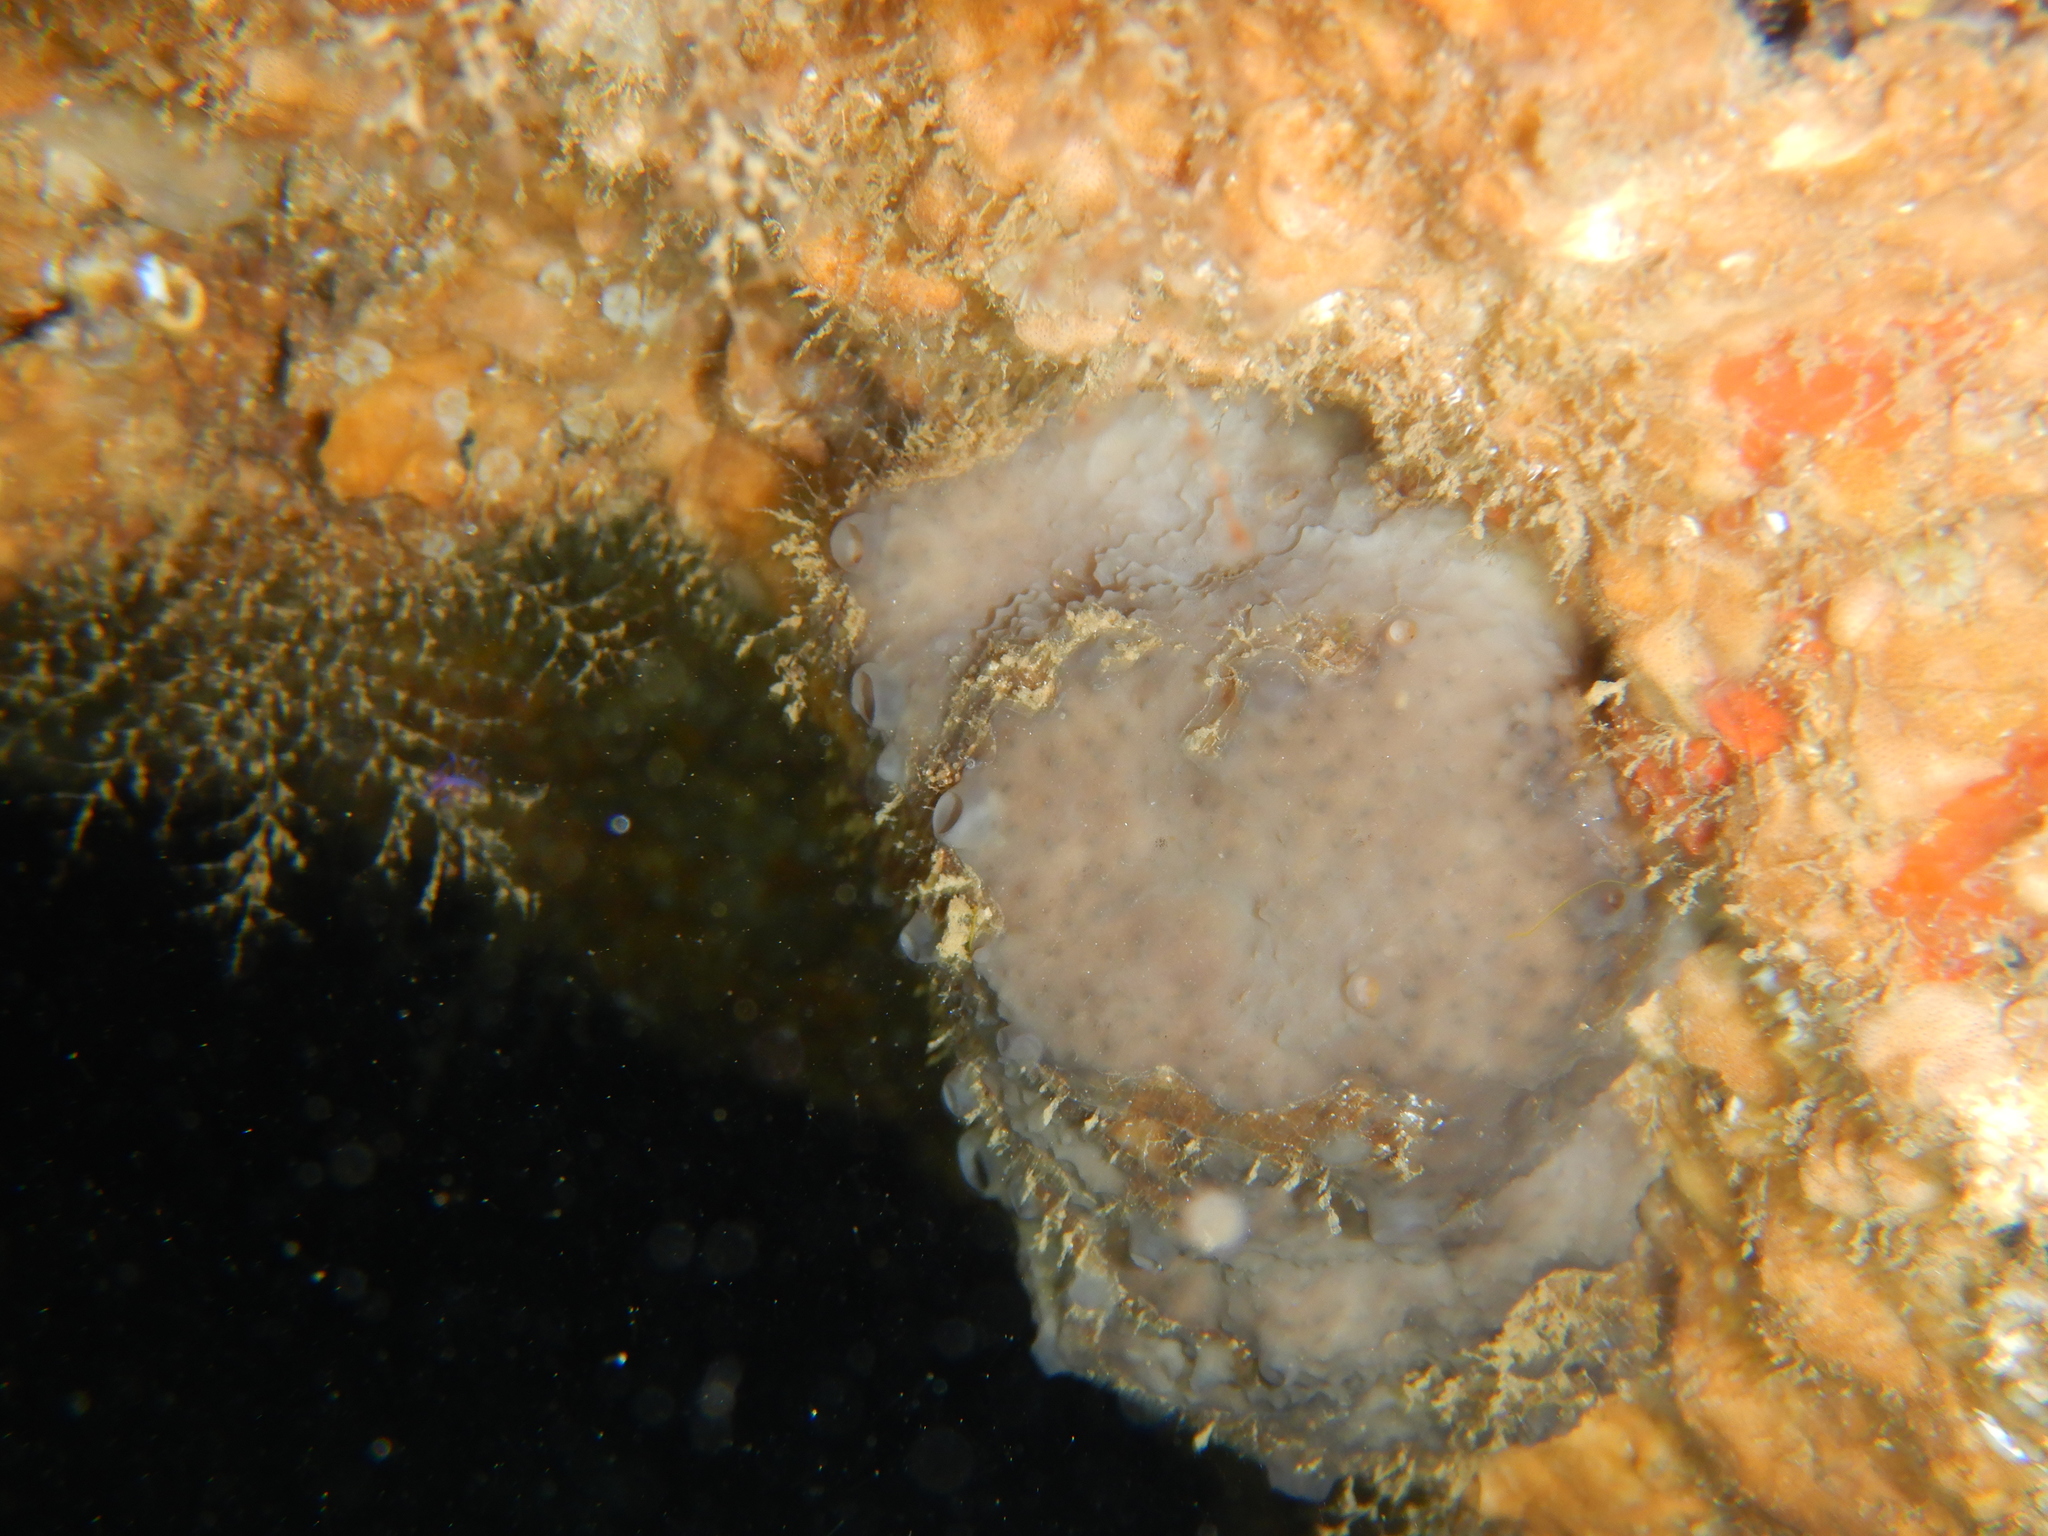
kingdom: Animalia
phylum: Porifera
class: Demospongiae
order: Dictyoceratida
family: Thorectidae
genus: Cacospongia
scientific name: Cacospongia mollior
